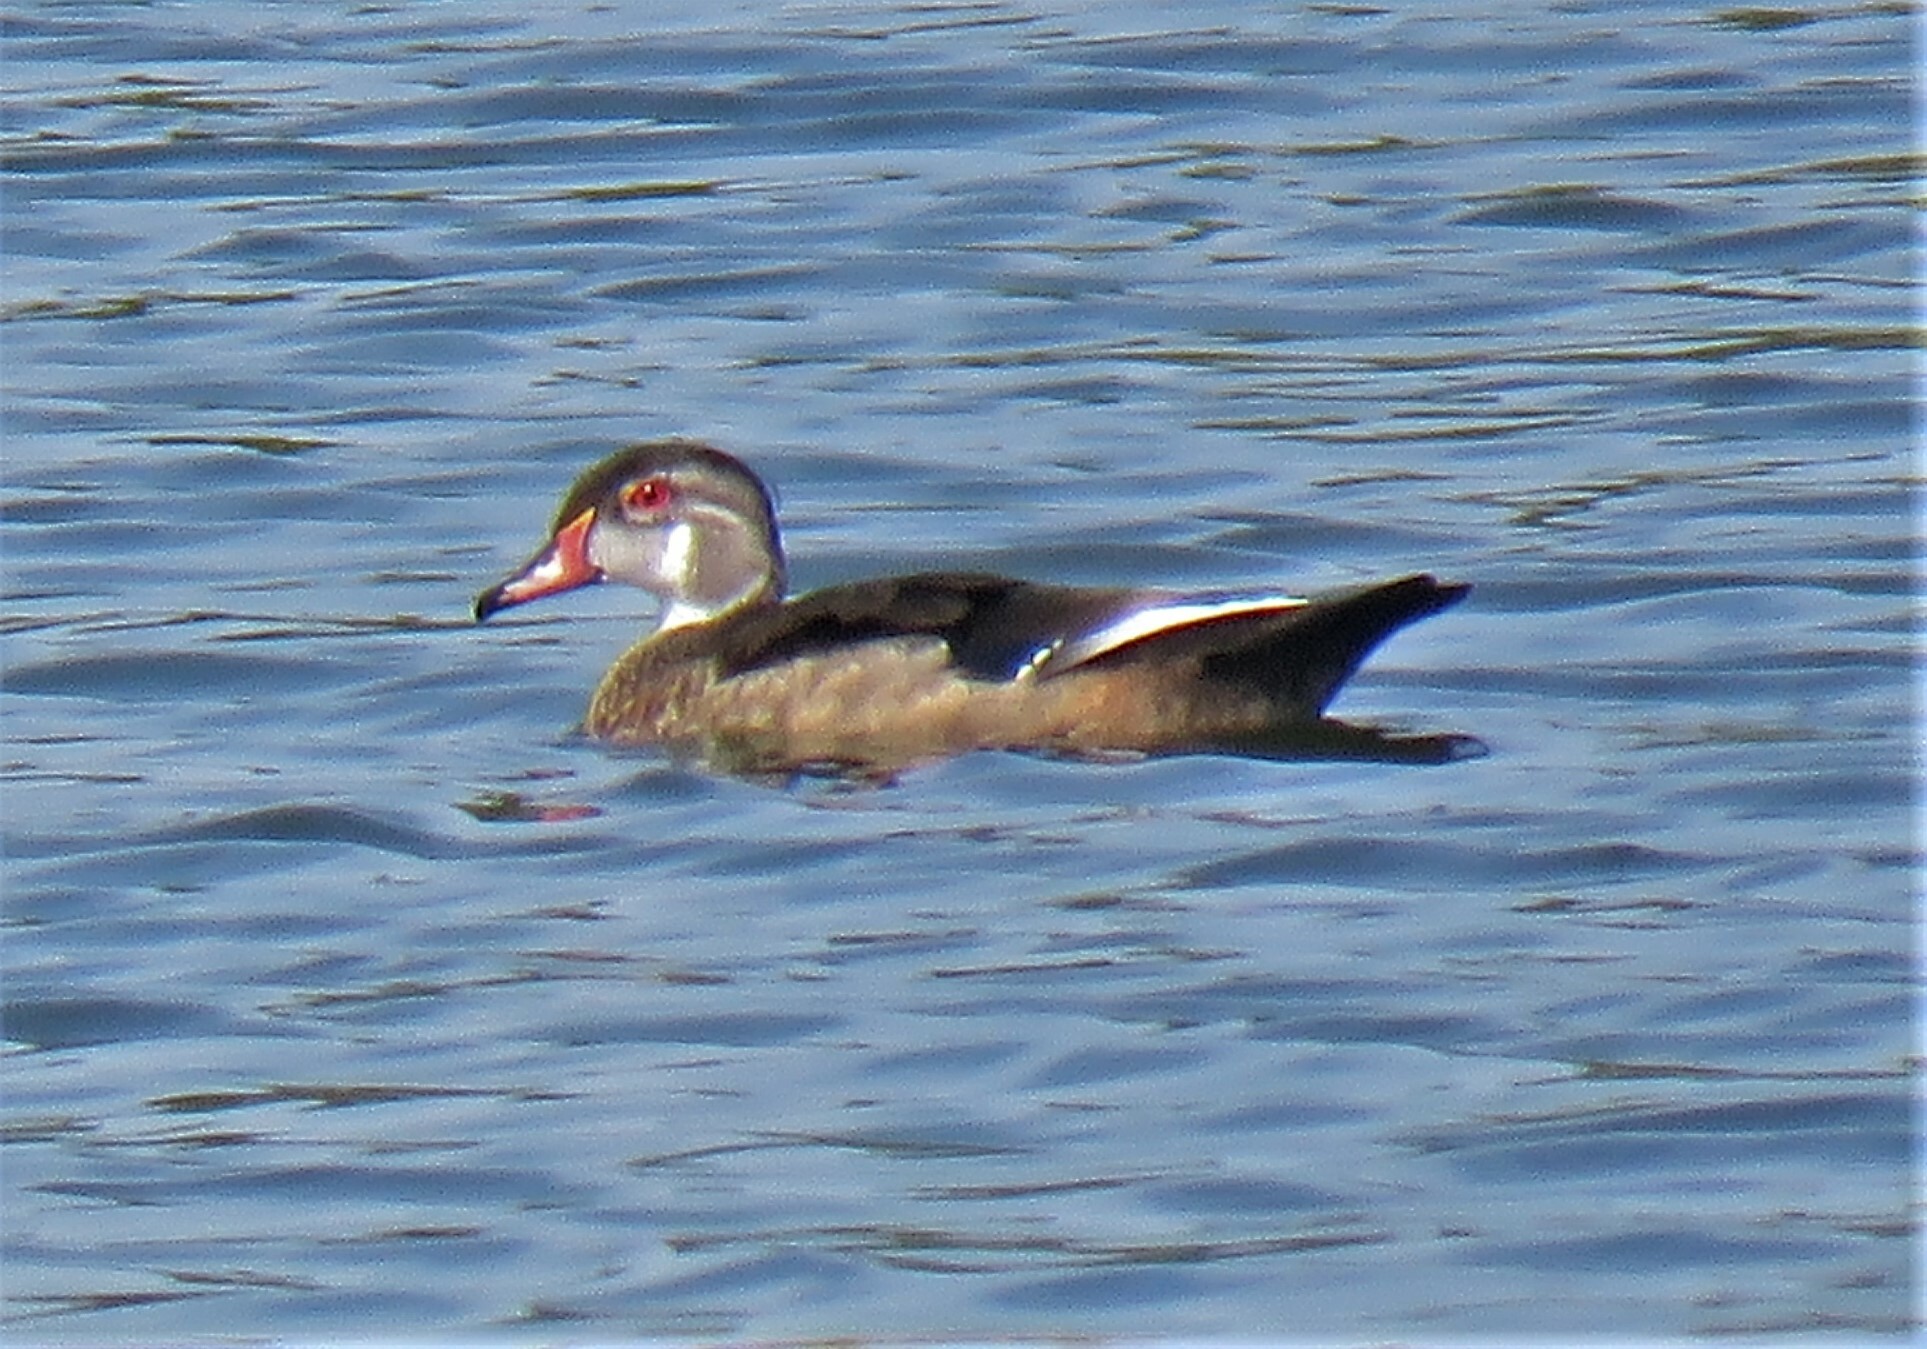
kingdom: Animalia
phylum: Chordata
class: Aves
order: Anseriformes
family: Anatidae
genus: Aix
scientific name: Aix sponsa
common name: Wood duck
